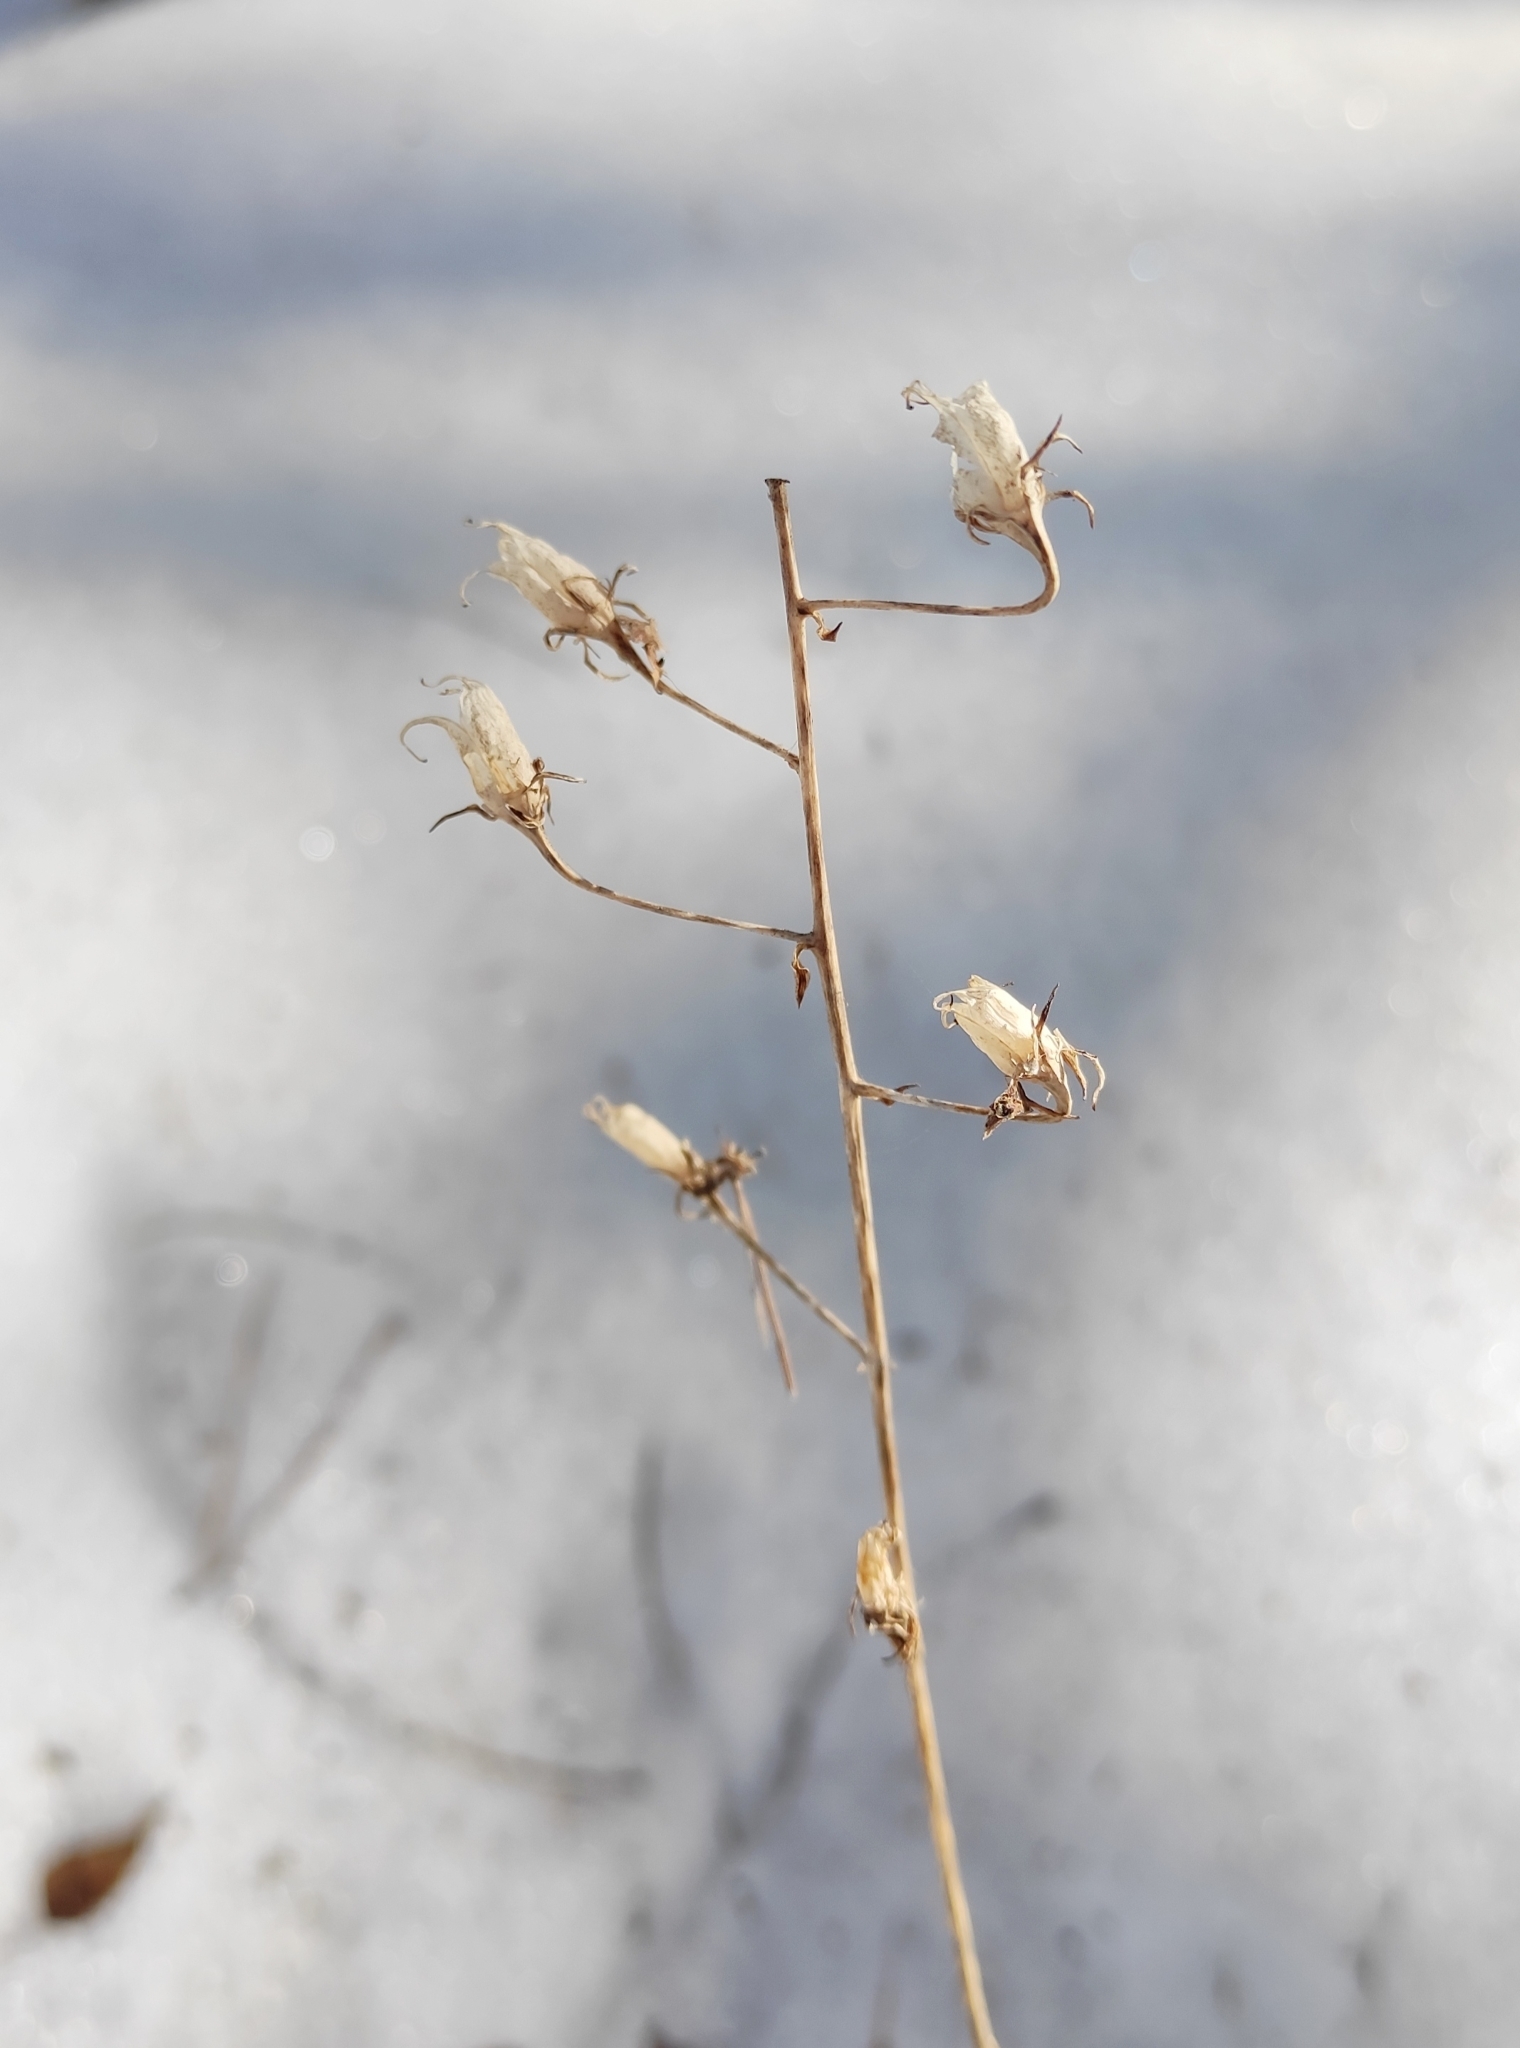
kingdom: Plantae
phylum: Tracheophyta
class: Liliopsida
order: Liliales
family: Melanthiaceae
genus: Anticlea
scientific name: Anticlea sibirica
